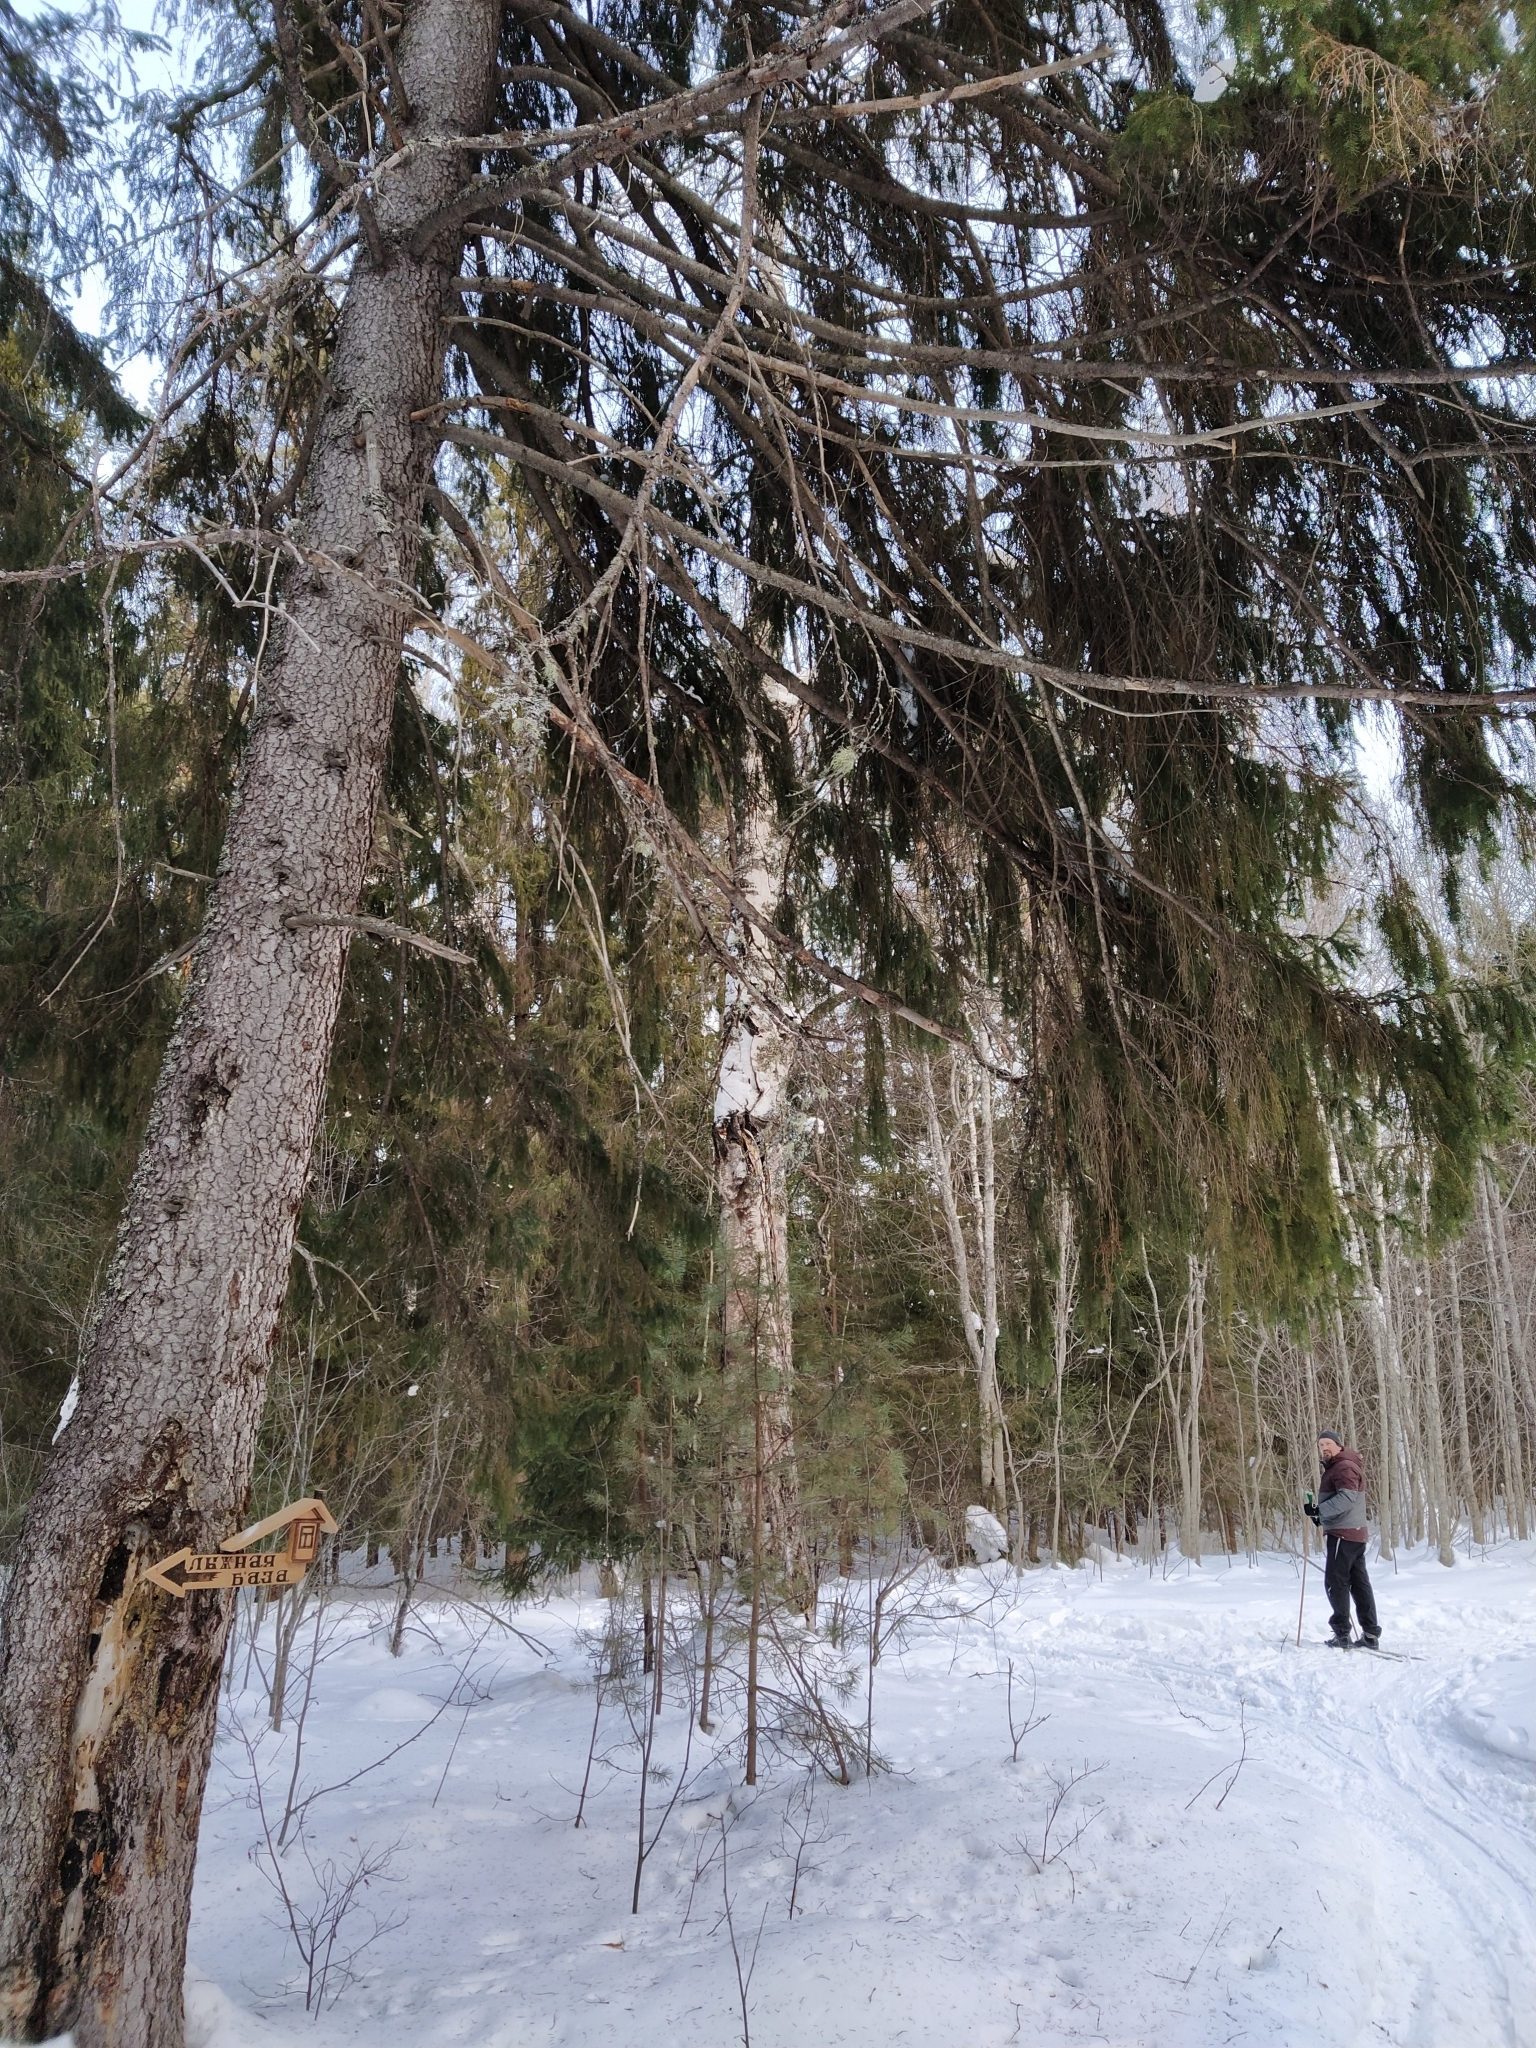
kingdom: Plantae
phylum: Tracheophyta
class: Pinopsida
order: Pinales
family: Pinaceae
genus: Picea
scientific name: Picea abies
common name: Norway spruce
